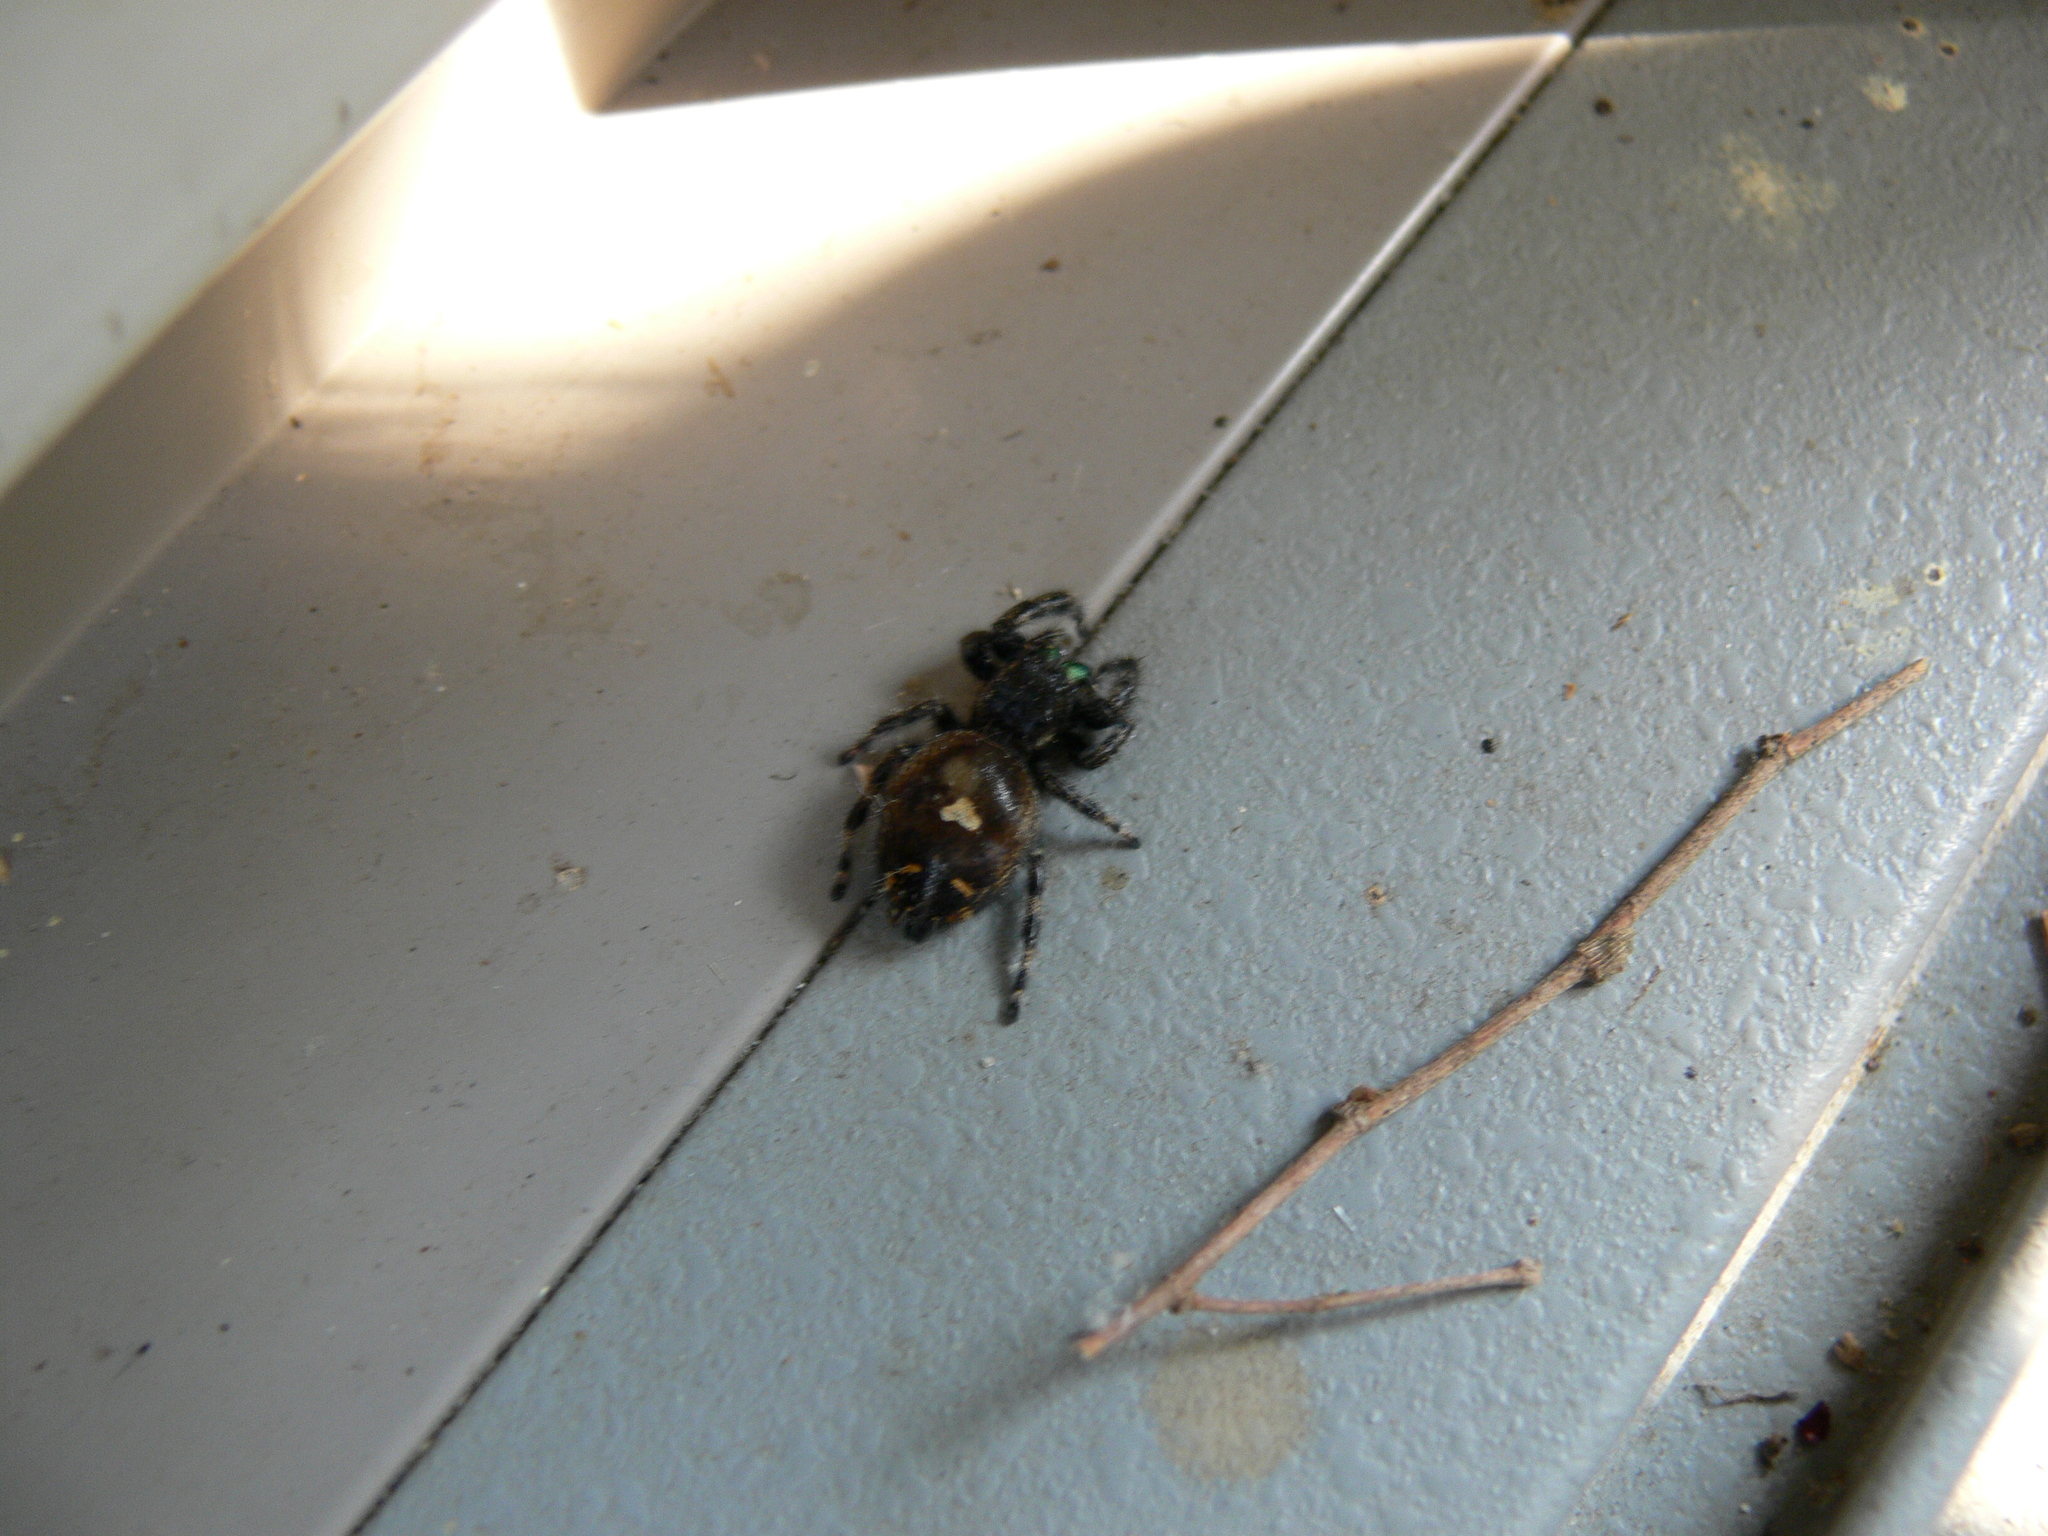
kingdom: Animalia
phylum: Arthropoda
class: Arachnida
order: Araneae
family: Salticidae
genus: Phidippus
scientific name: Phidippus audax
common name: Bold jumper
